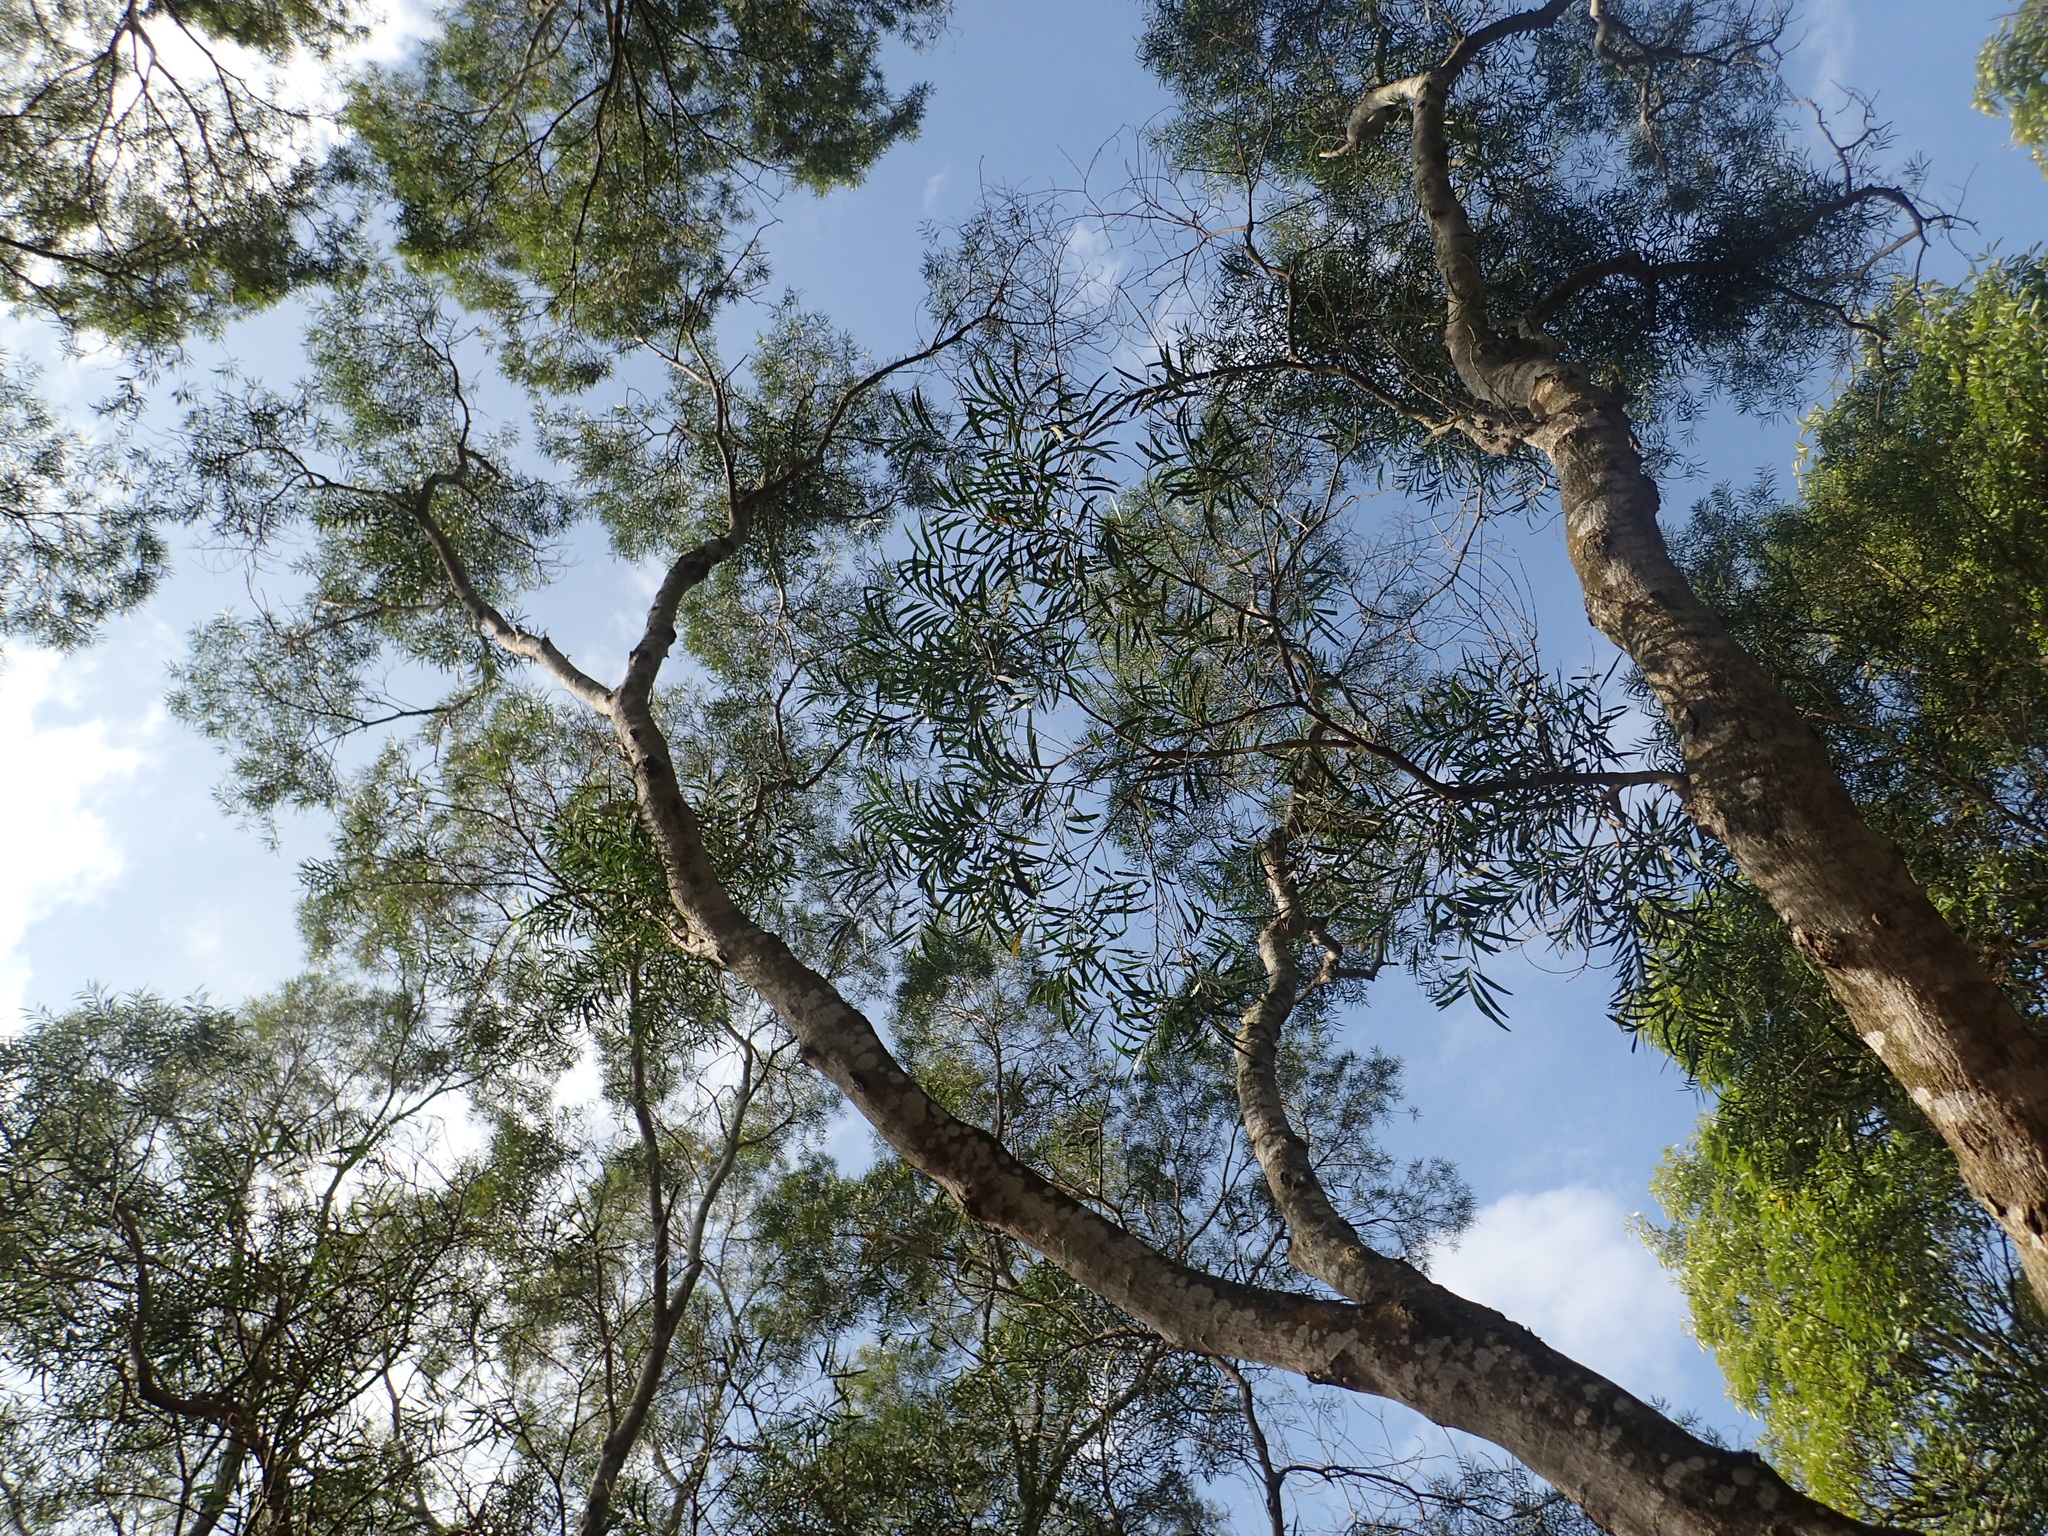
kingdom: Plantae
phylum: Tracheophyta
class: Magnoliopsida
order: Fabales
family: Fabaceae
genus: Acacia
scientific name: Acacia confusa
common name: Formosan koa
